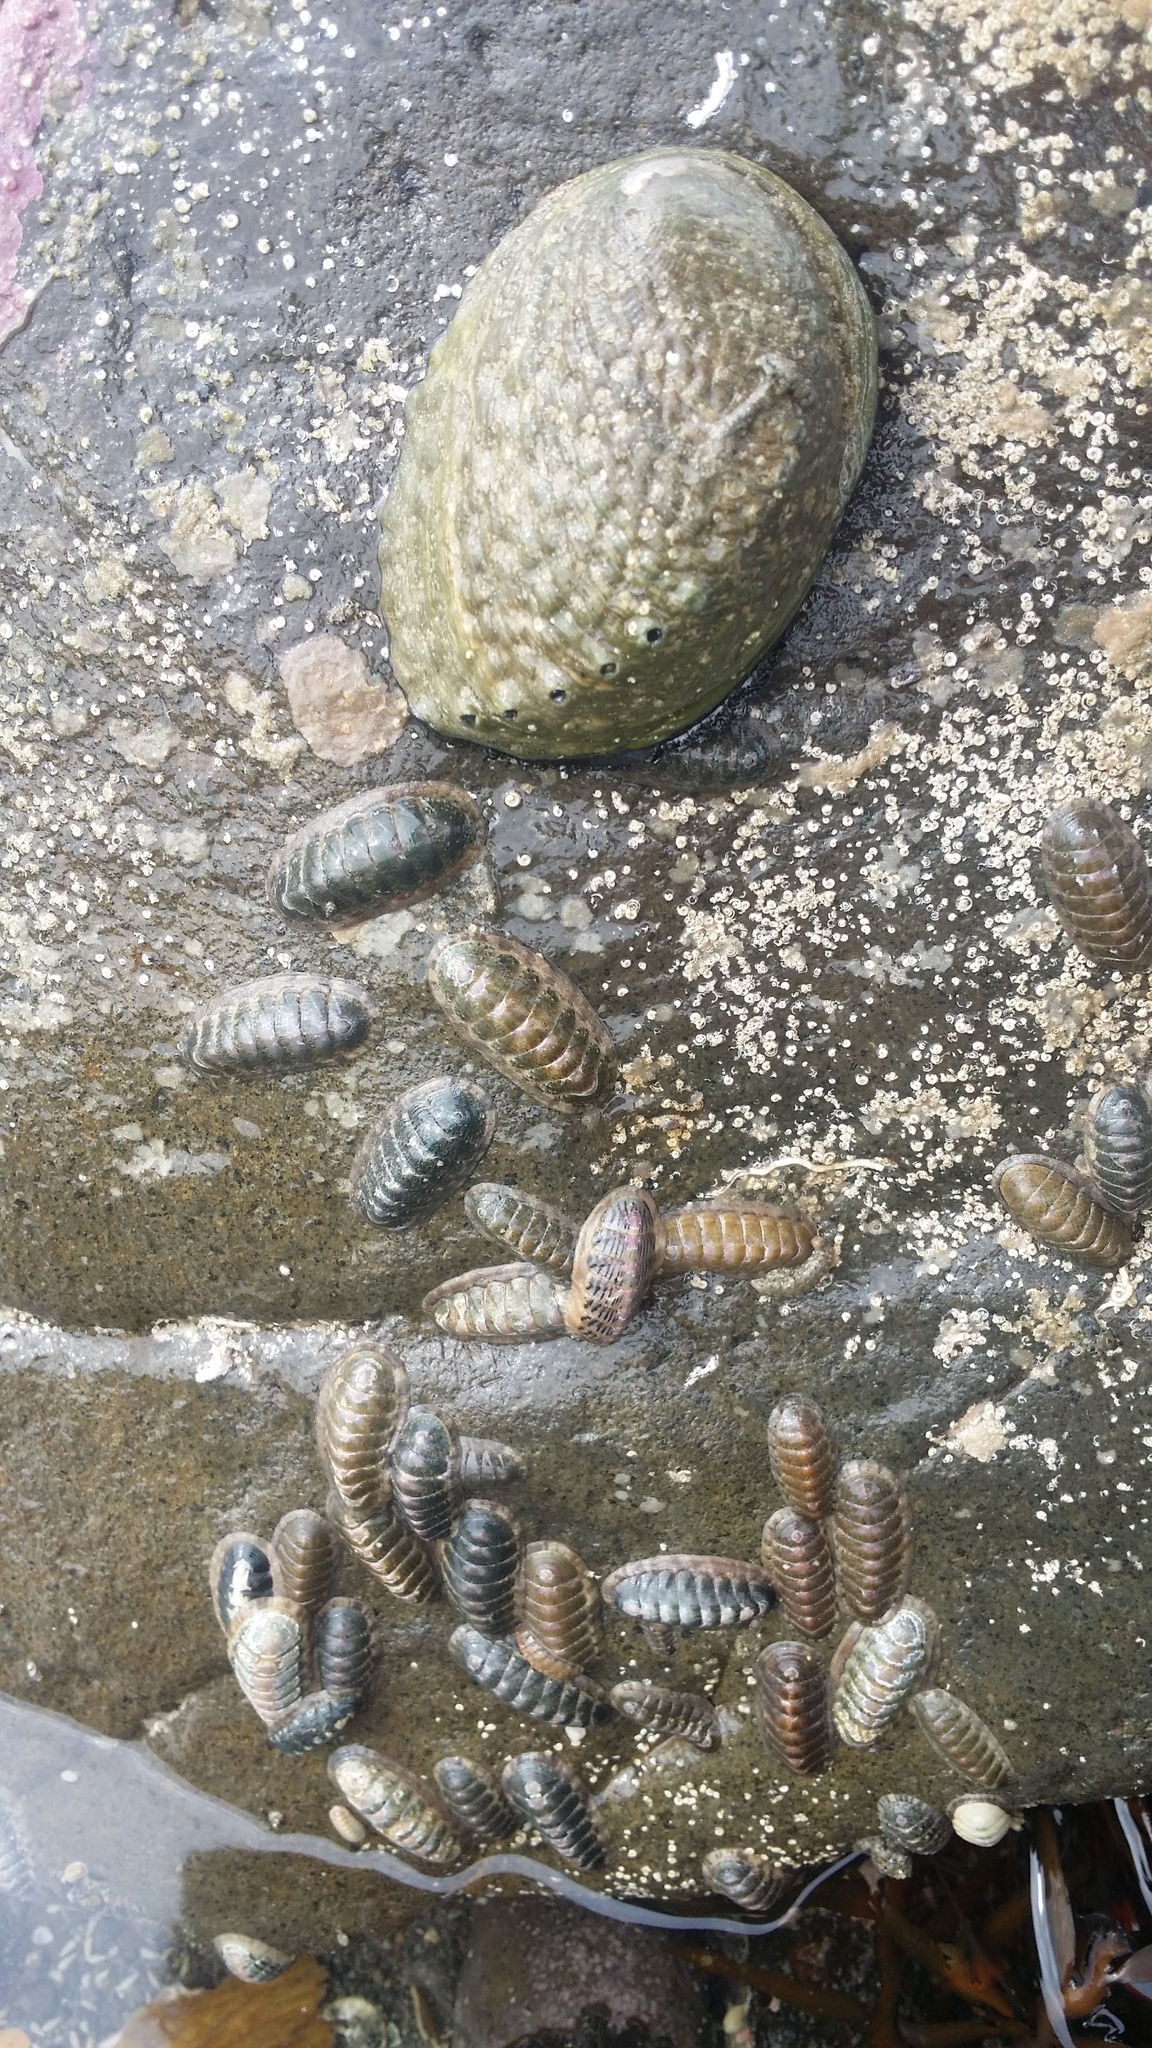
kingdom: Animalia
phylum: Mollusca
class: Polyplacophora
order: Chitonida
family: Ischnochitonidae
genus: Ischnochiton
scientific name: Ischnochiton maorianus
